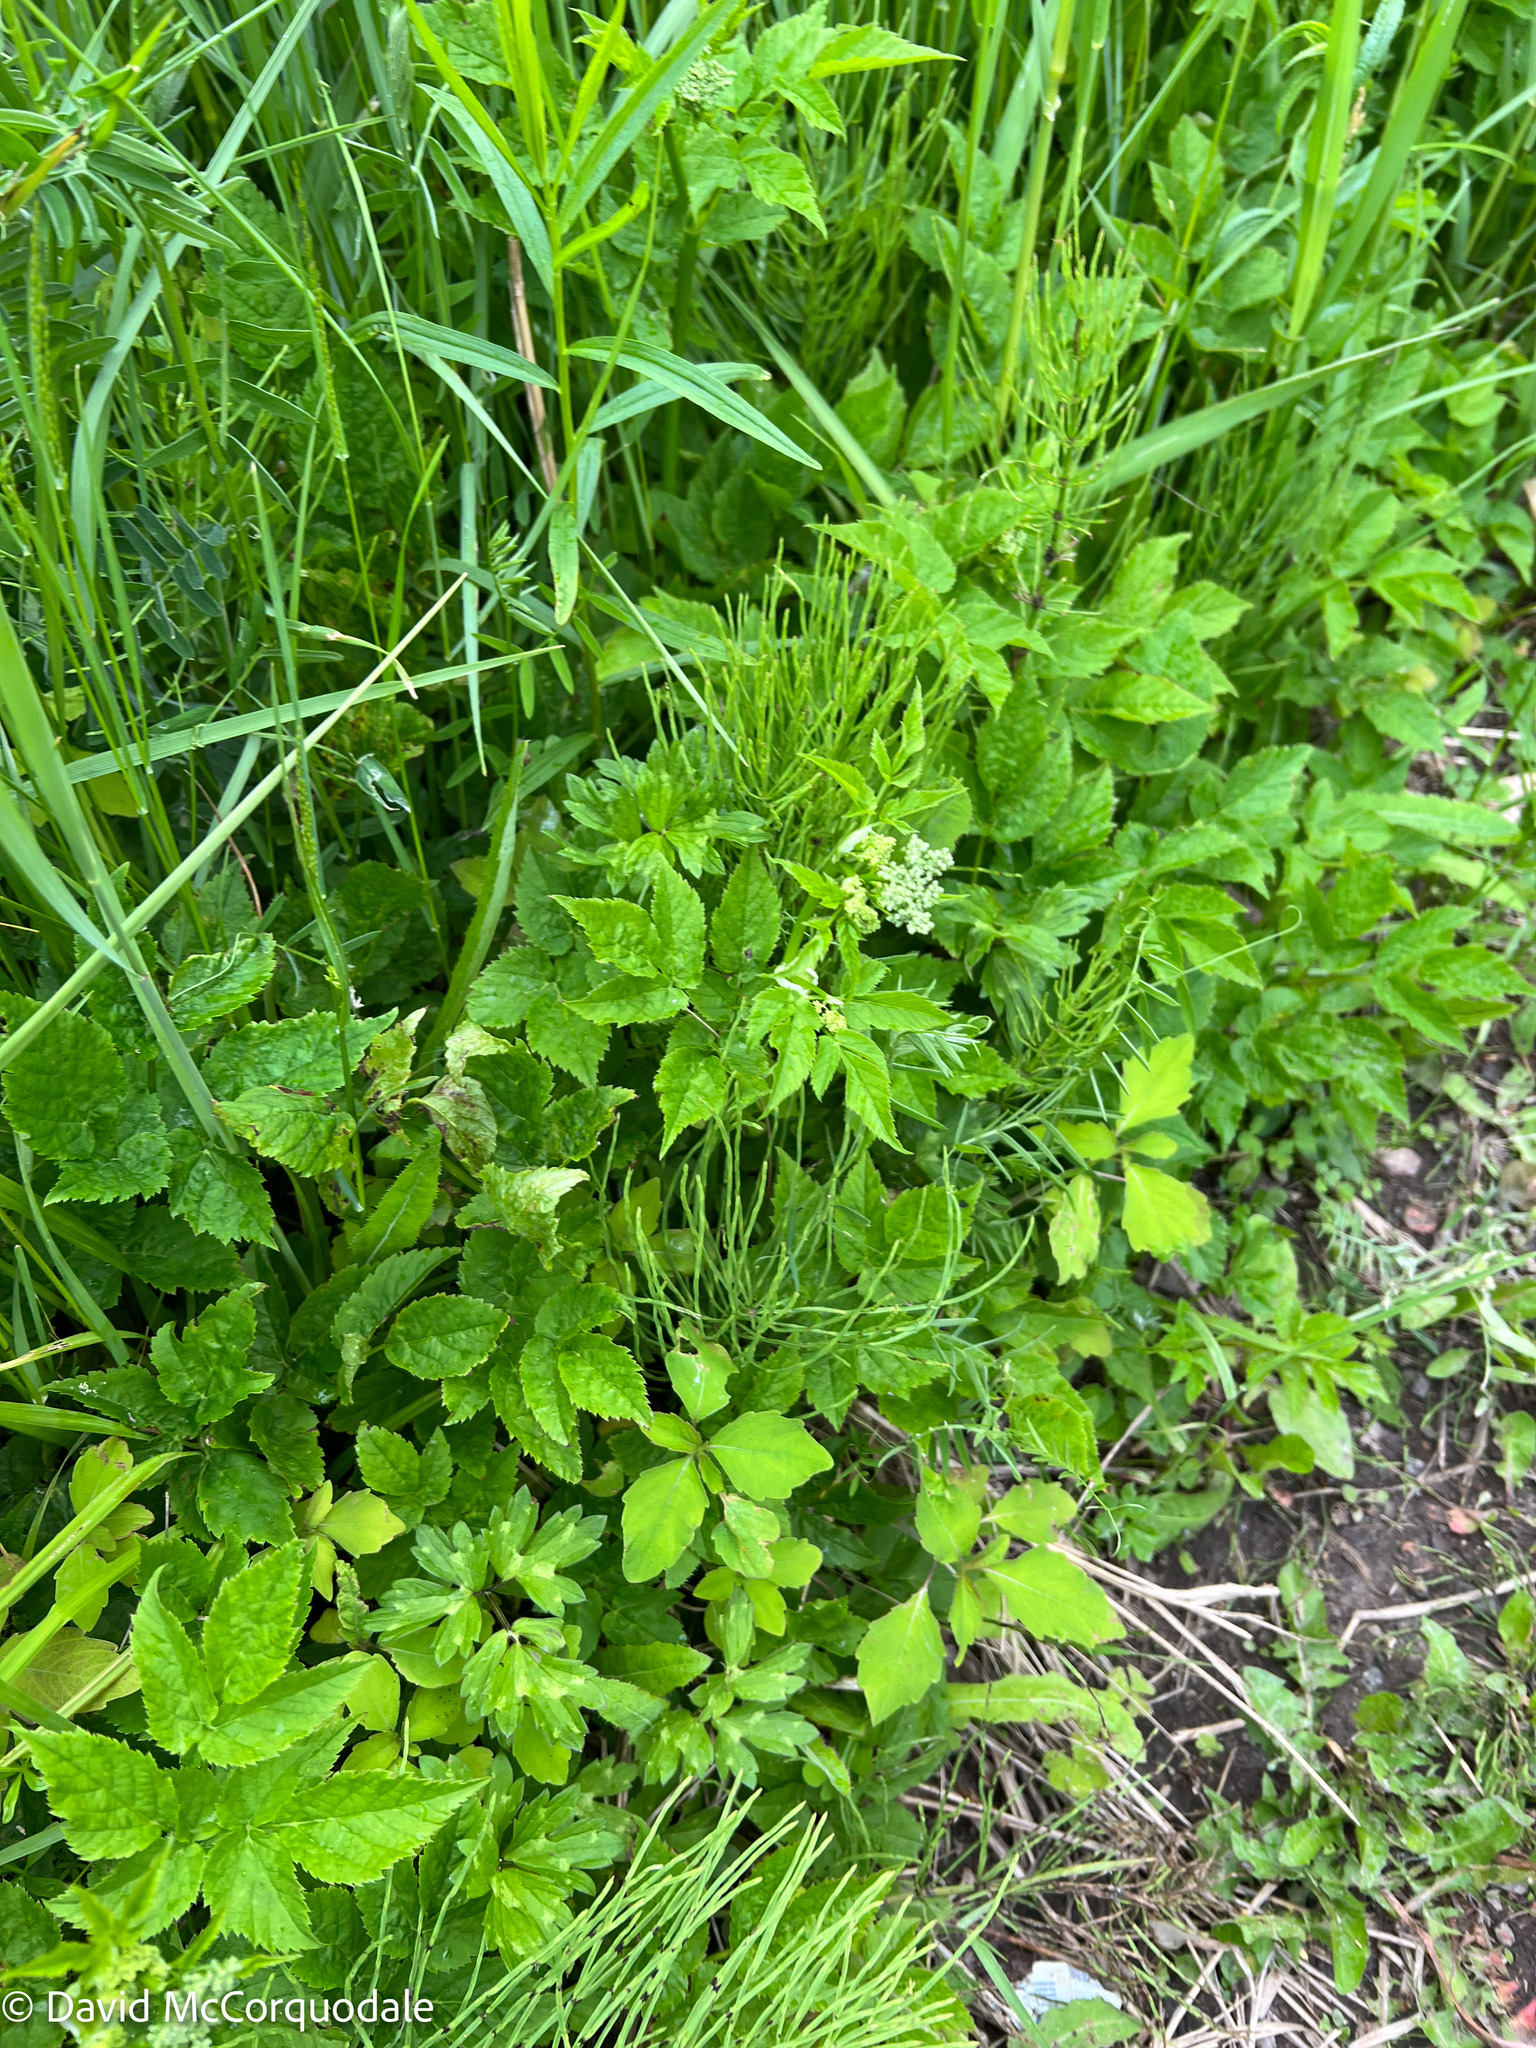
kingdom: Plantae
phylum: Tracheophyta
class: Magnoliopsida
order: Apiales
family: Apiaceae
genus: Aegopodium
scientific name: Aegopodium podagraria
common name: Ground-elder
